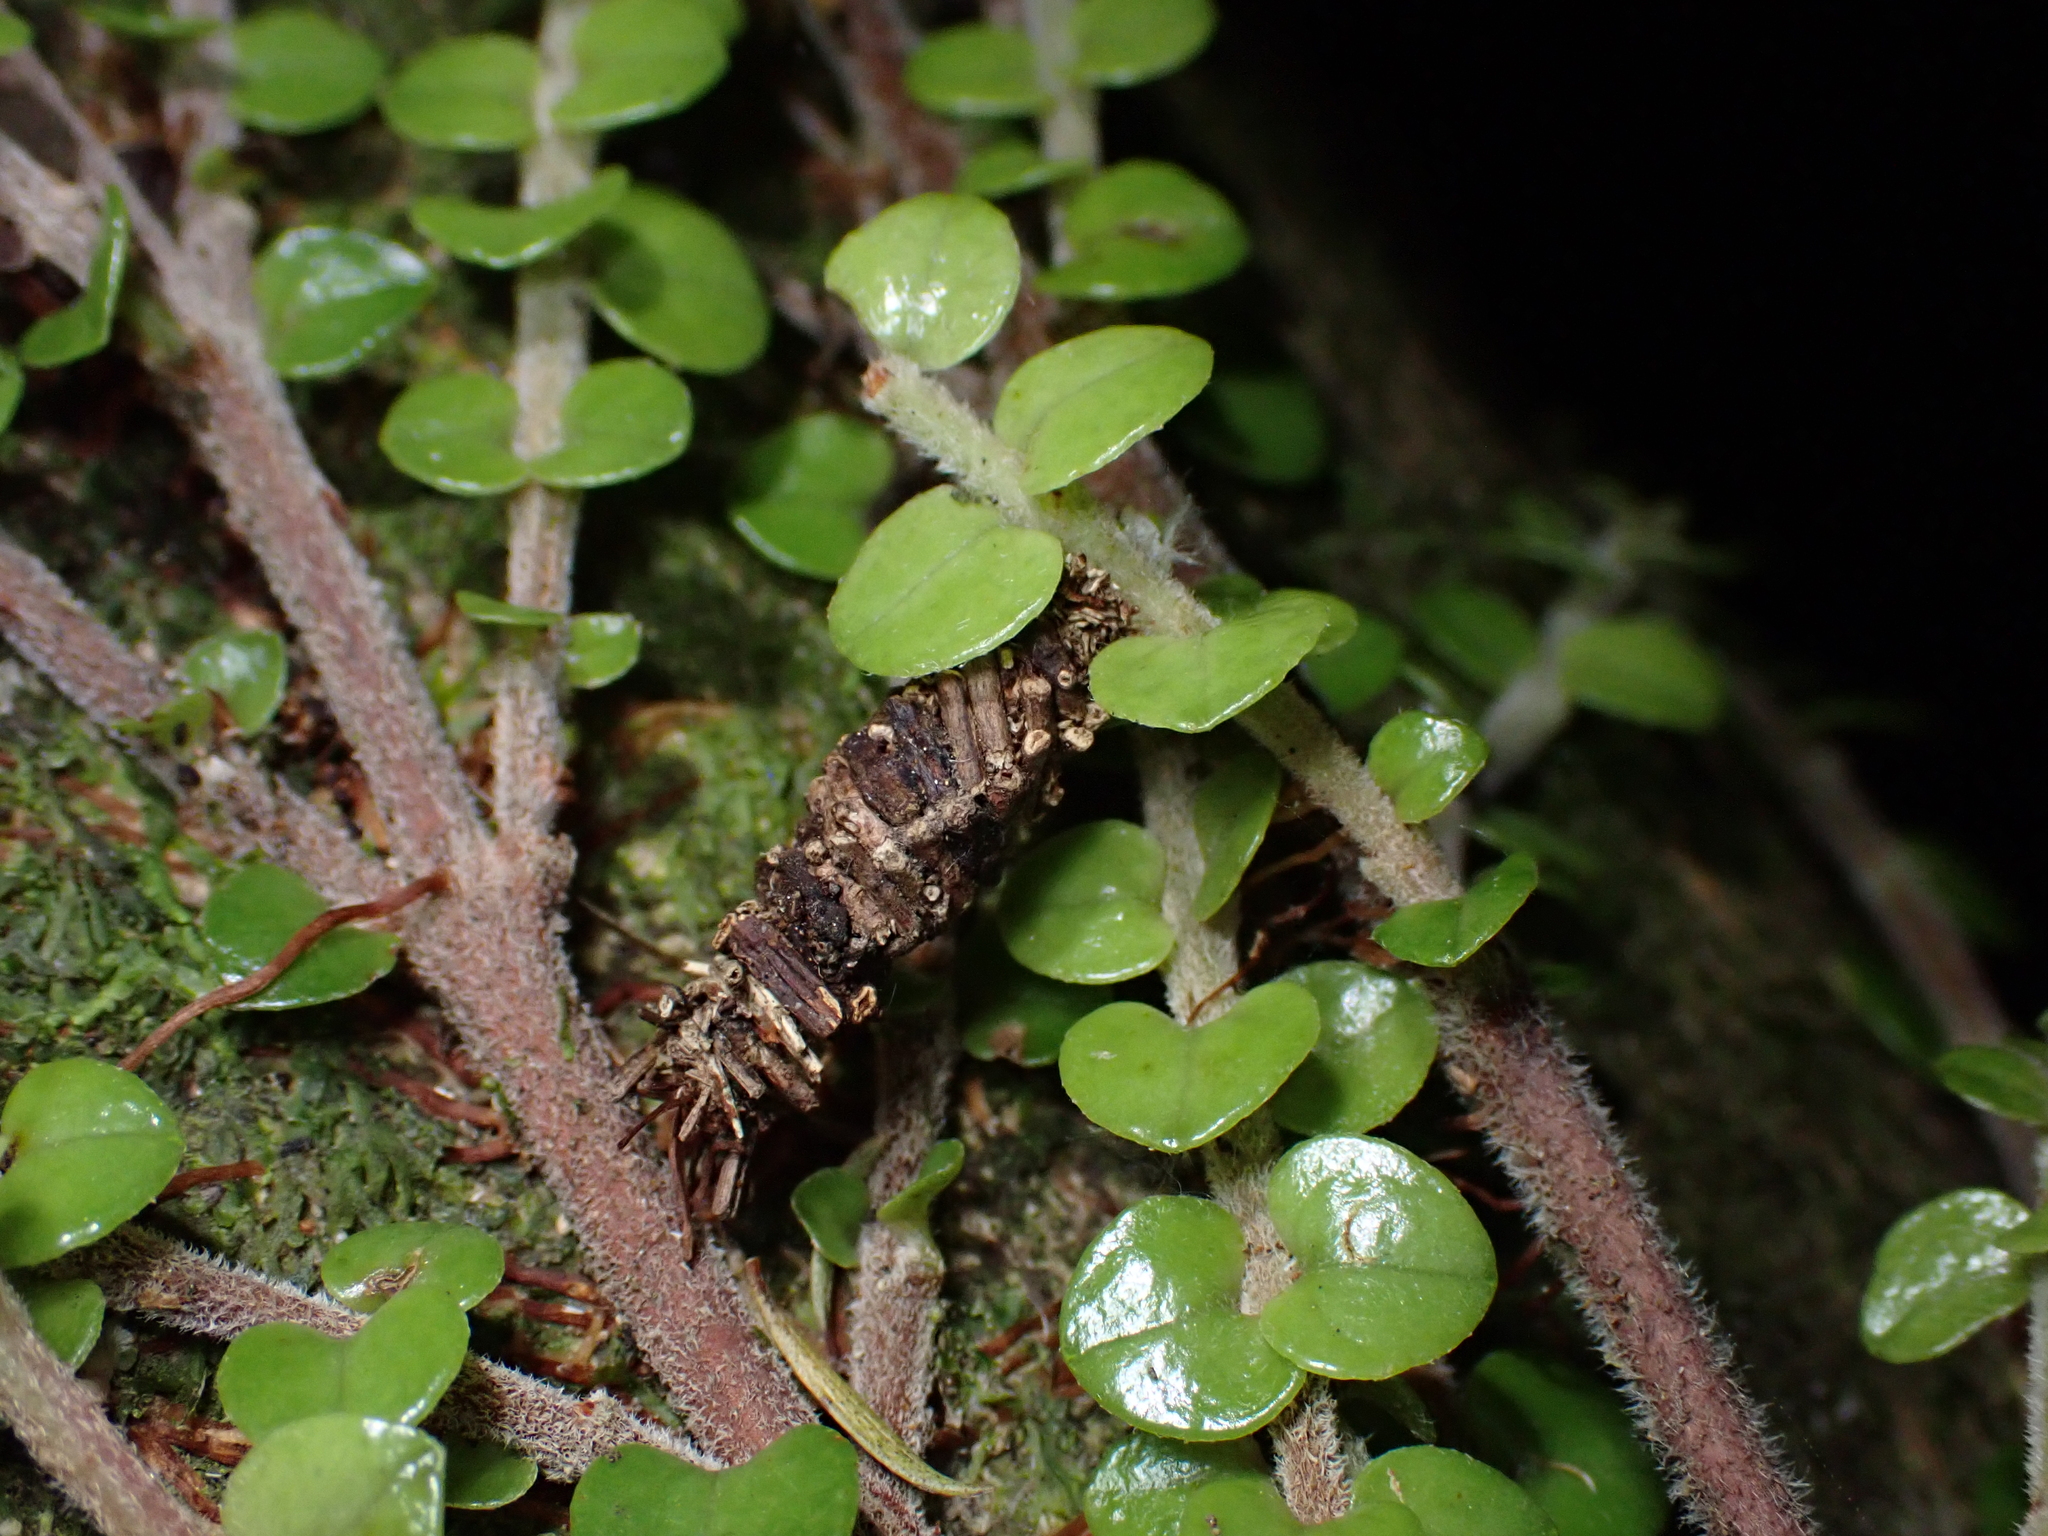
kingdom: Animalia
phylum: Arthropoda
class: Insecta
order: Lepidoptera
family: Psychidae
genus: Lepidoscia
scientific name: Lepidoscia protorna
